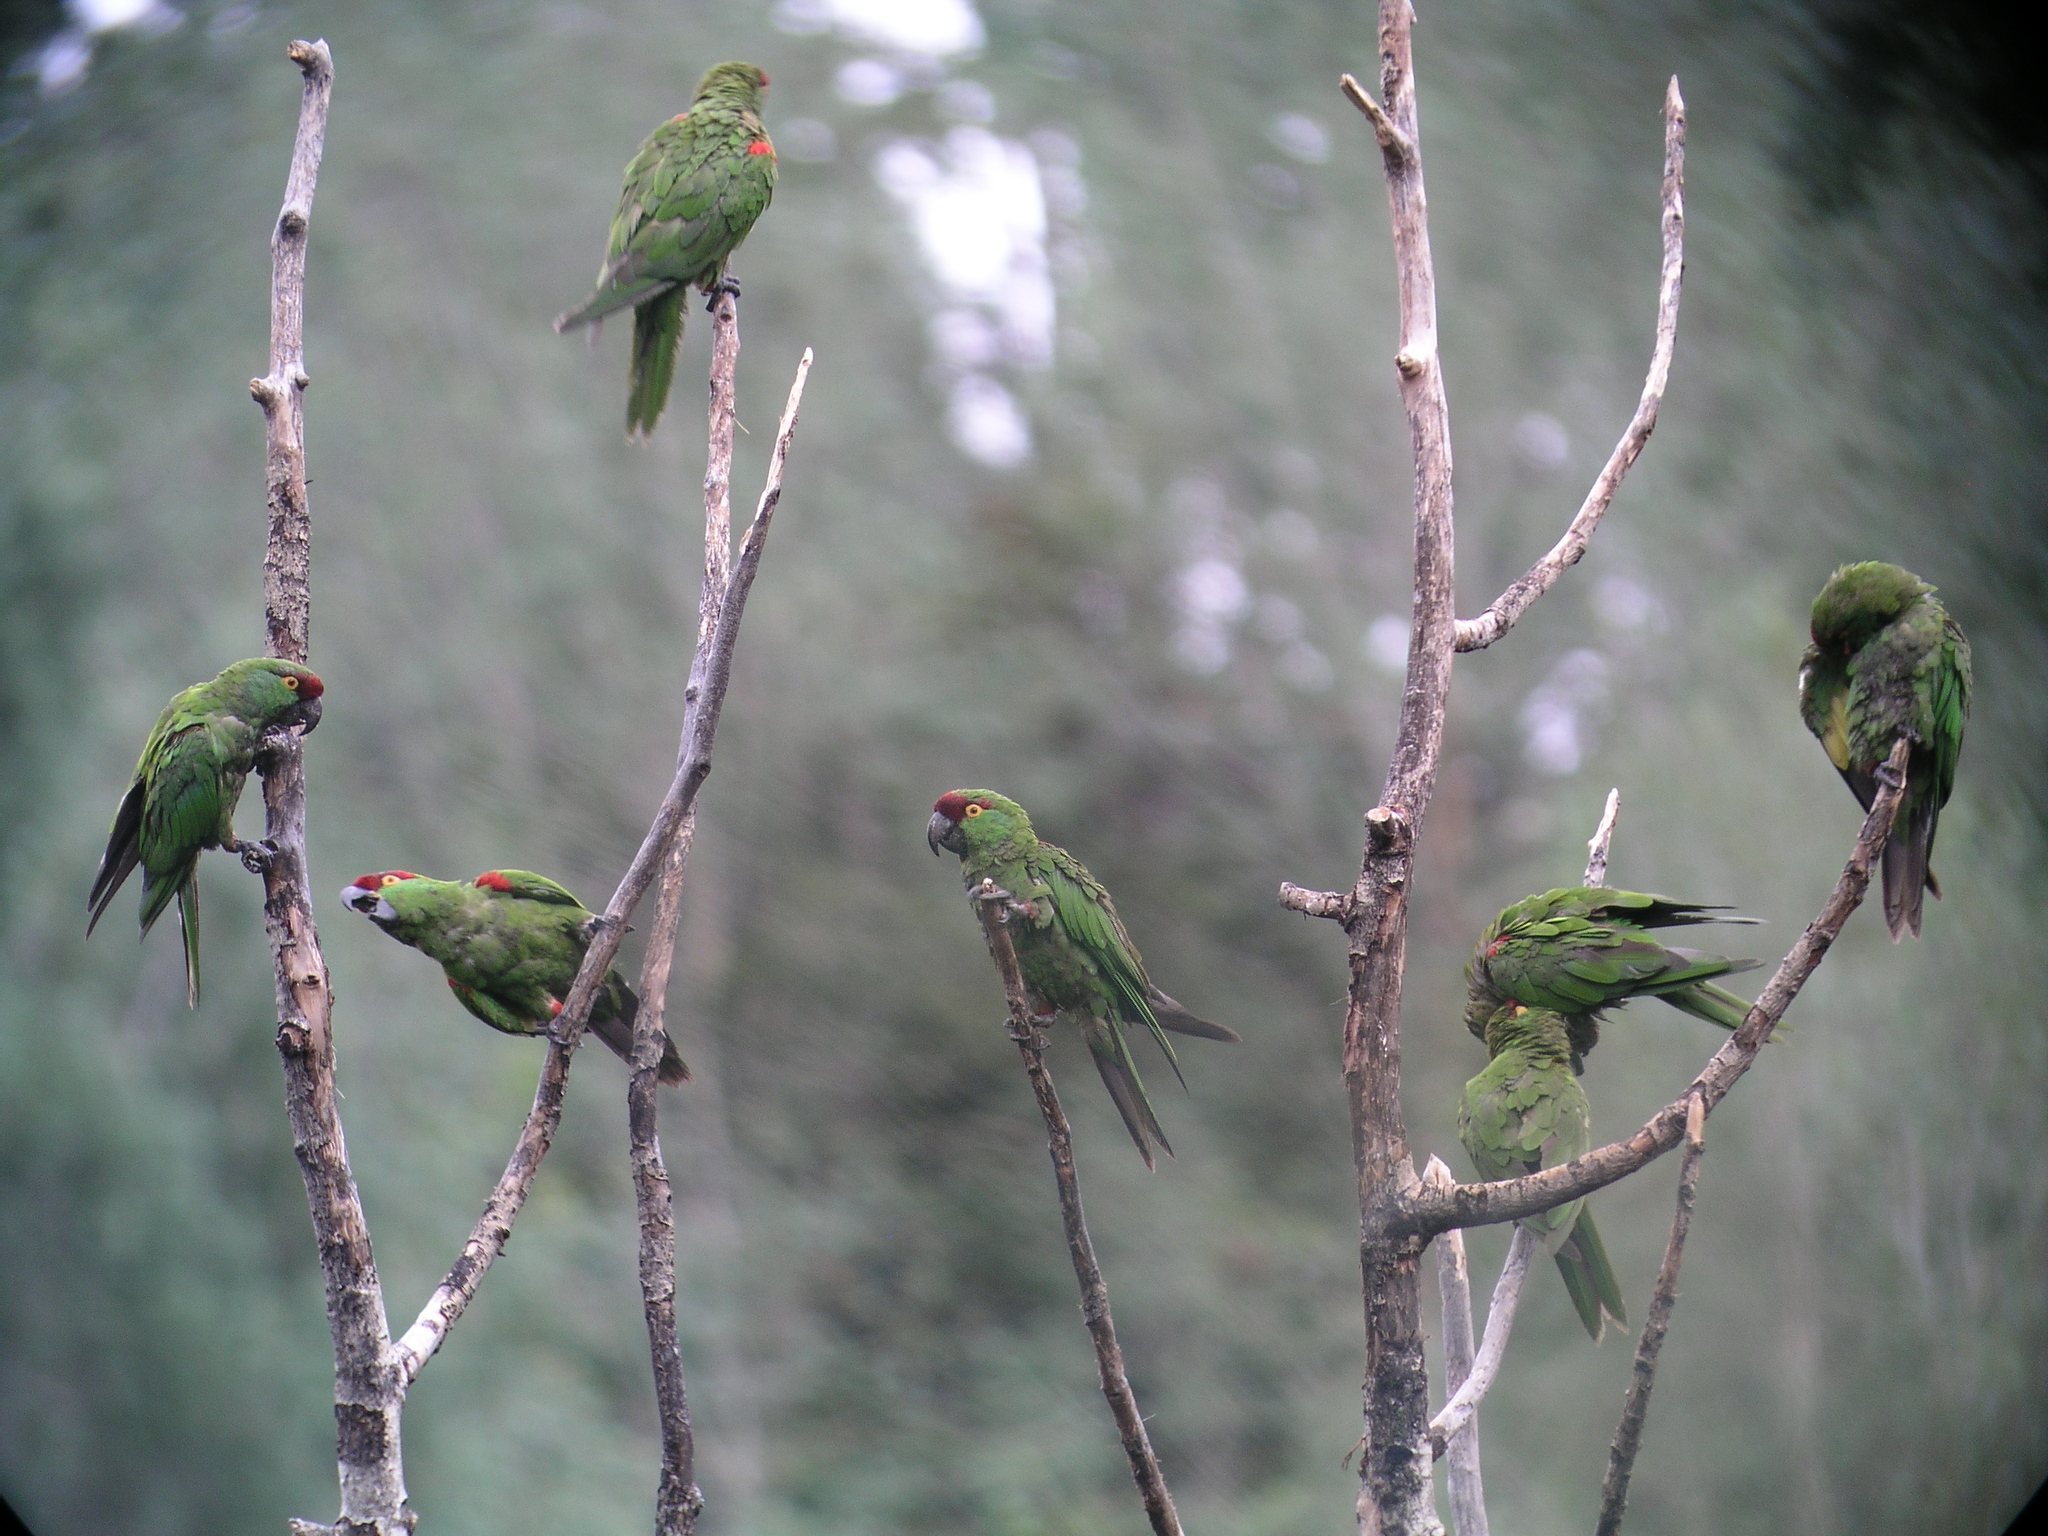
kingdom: Animalia
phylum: Chordata
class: Aves
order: Psittaciformes
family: Psittacidae
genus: Rhynchopsitta
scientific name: Rhynchopsitta pachyrhyncha
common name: Thick-billed parrot
